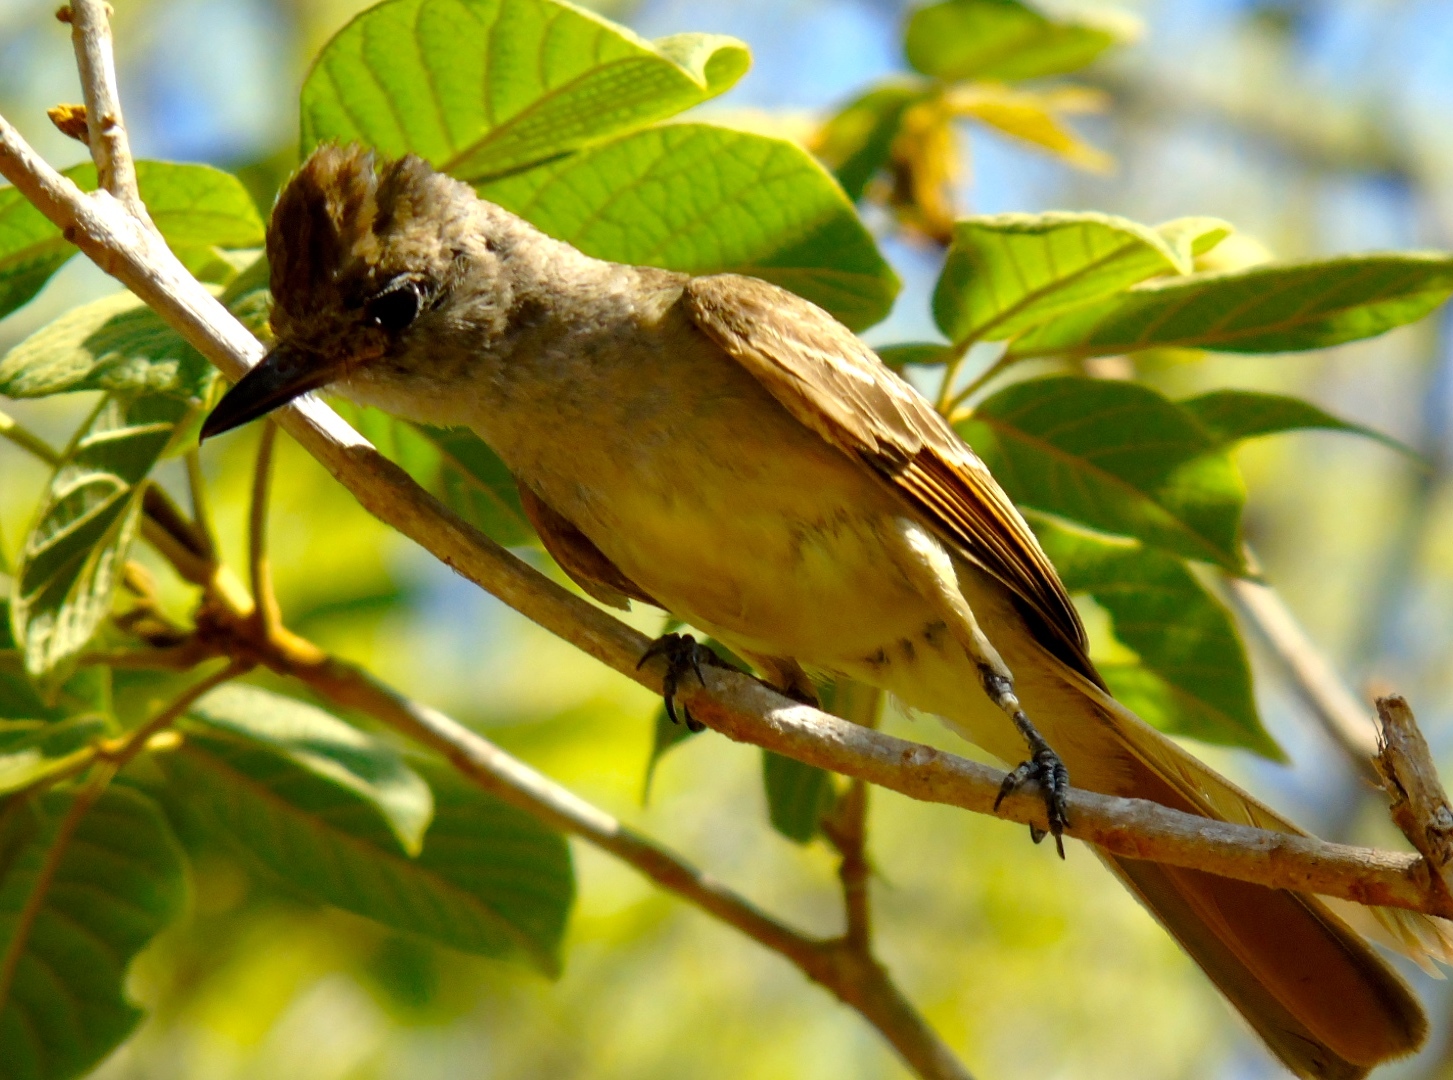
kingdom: Animalia
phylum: Chordata
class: Aves
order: Passeriformes
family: Tyrannidae
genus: Myiarchus
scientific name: Myiarchus
